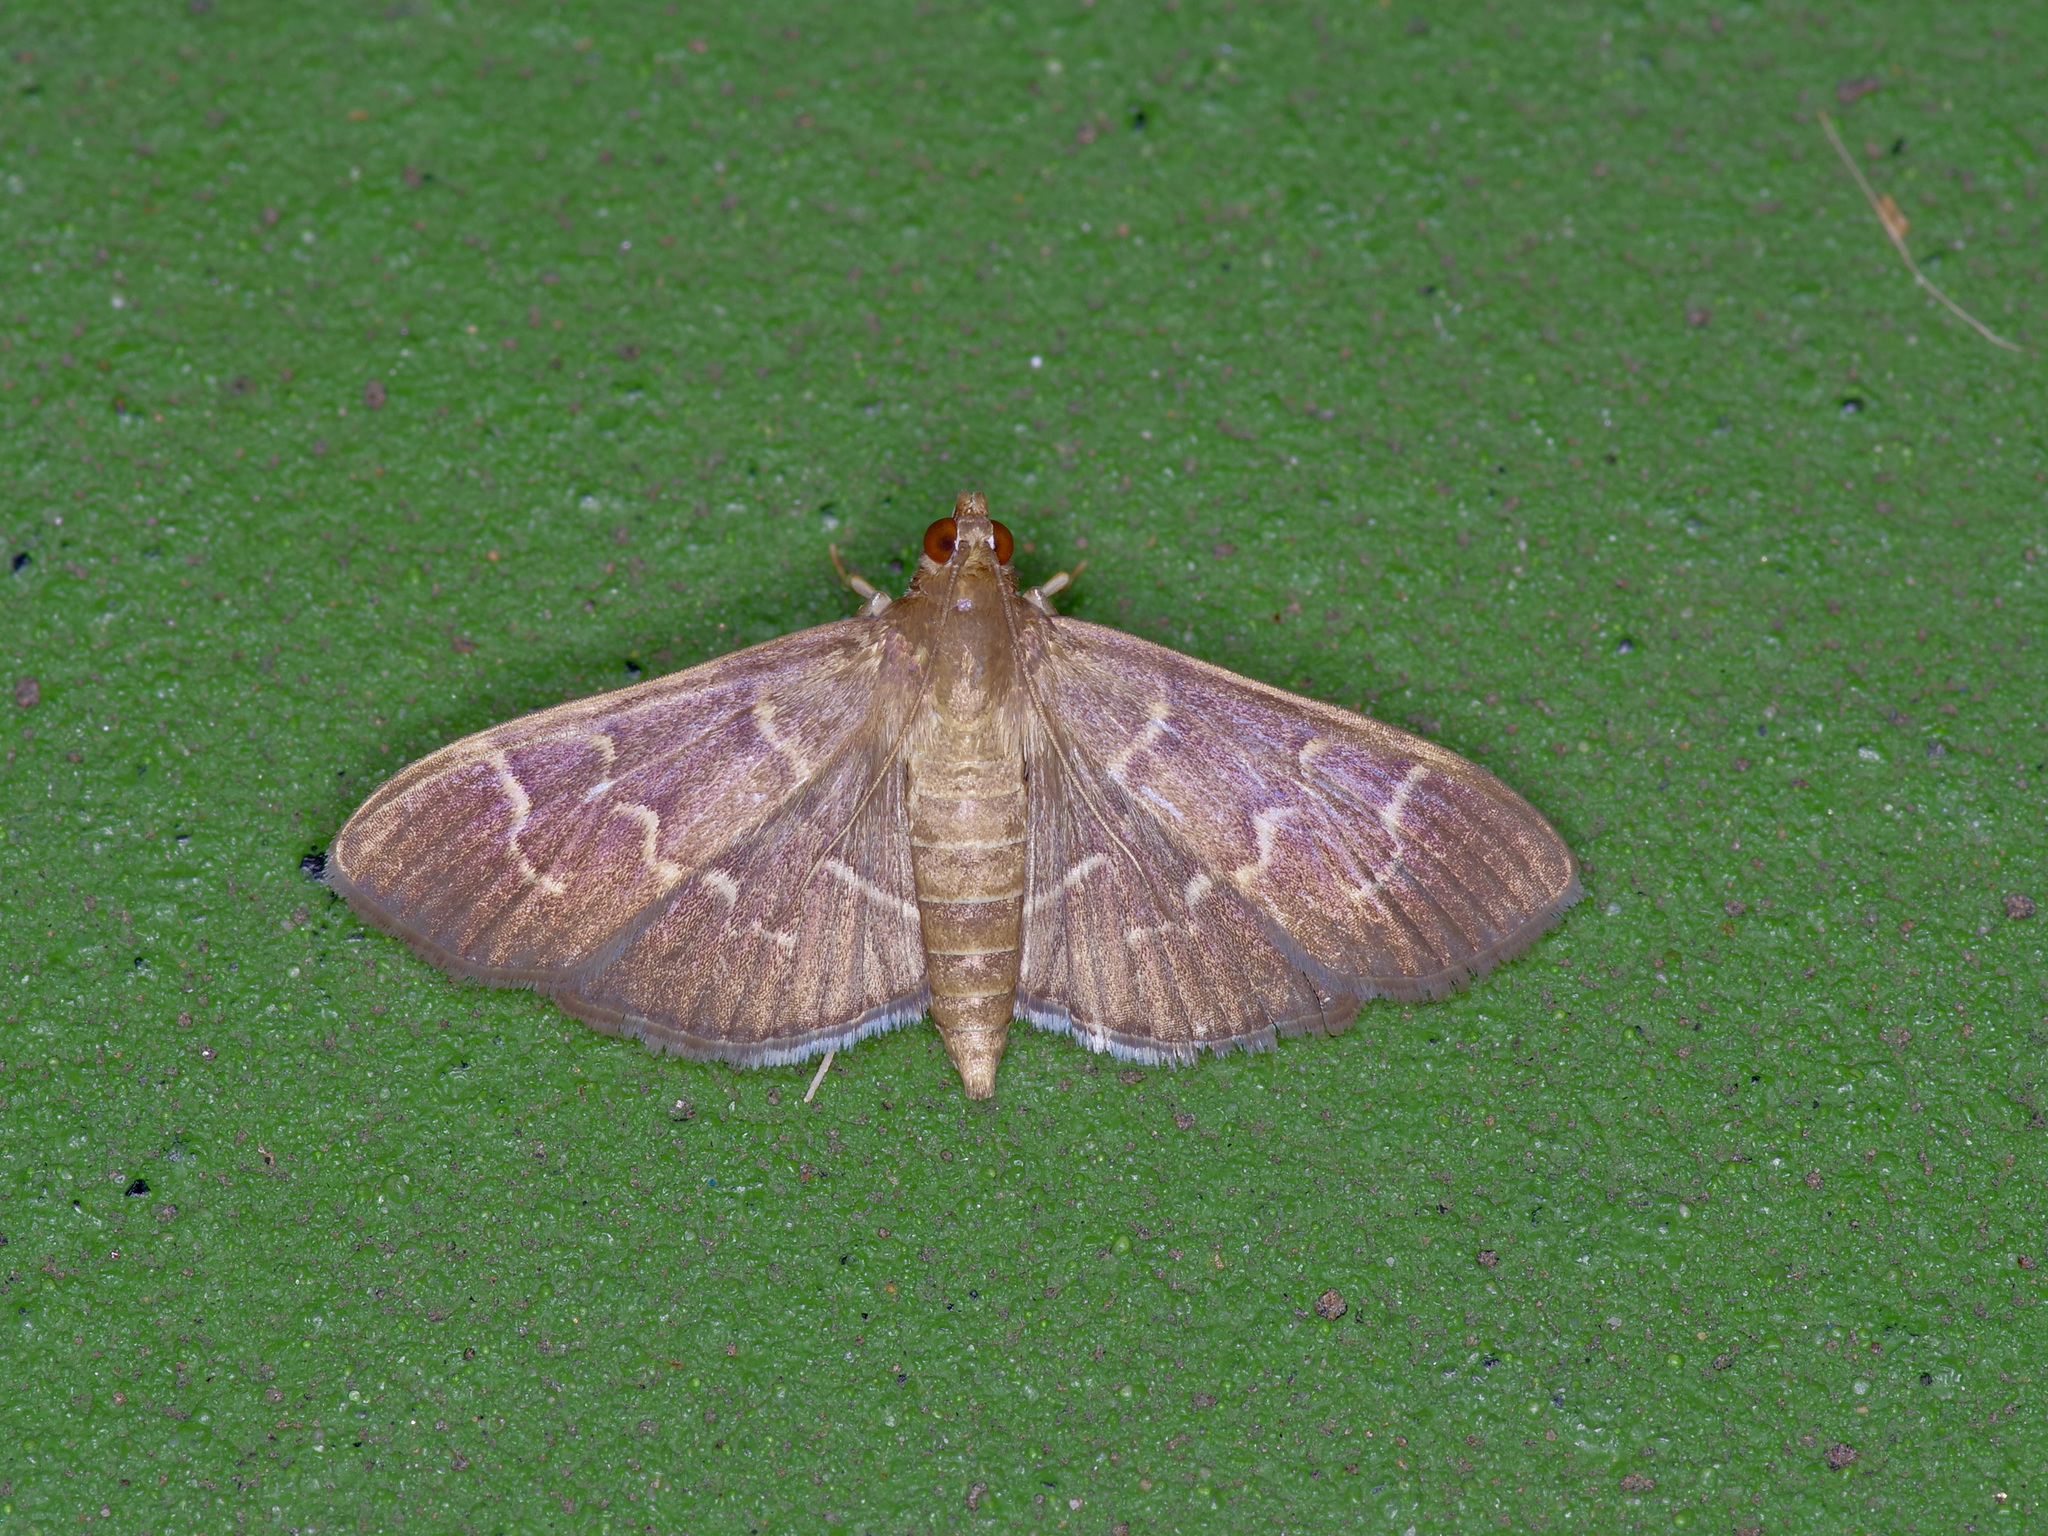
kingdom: Animalia
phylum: Arthropoda
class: Insecta
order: Lepidoptera
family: Crambidae
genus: Pilocrocis
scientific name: Pilocrocis ramentalis
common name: Scraped pilocrocis
